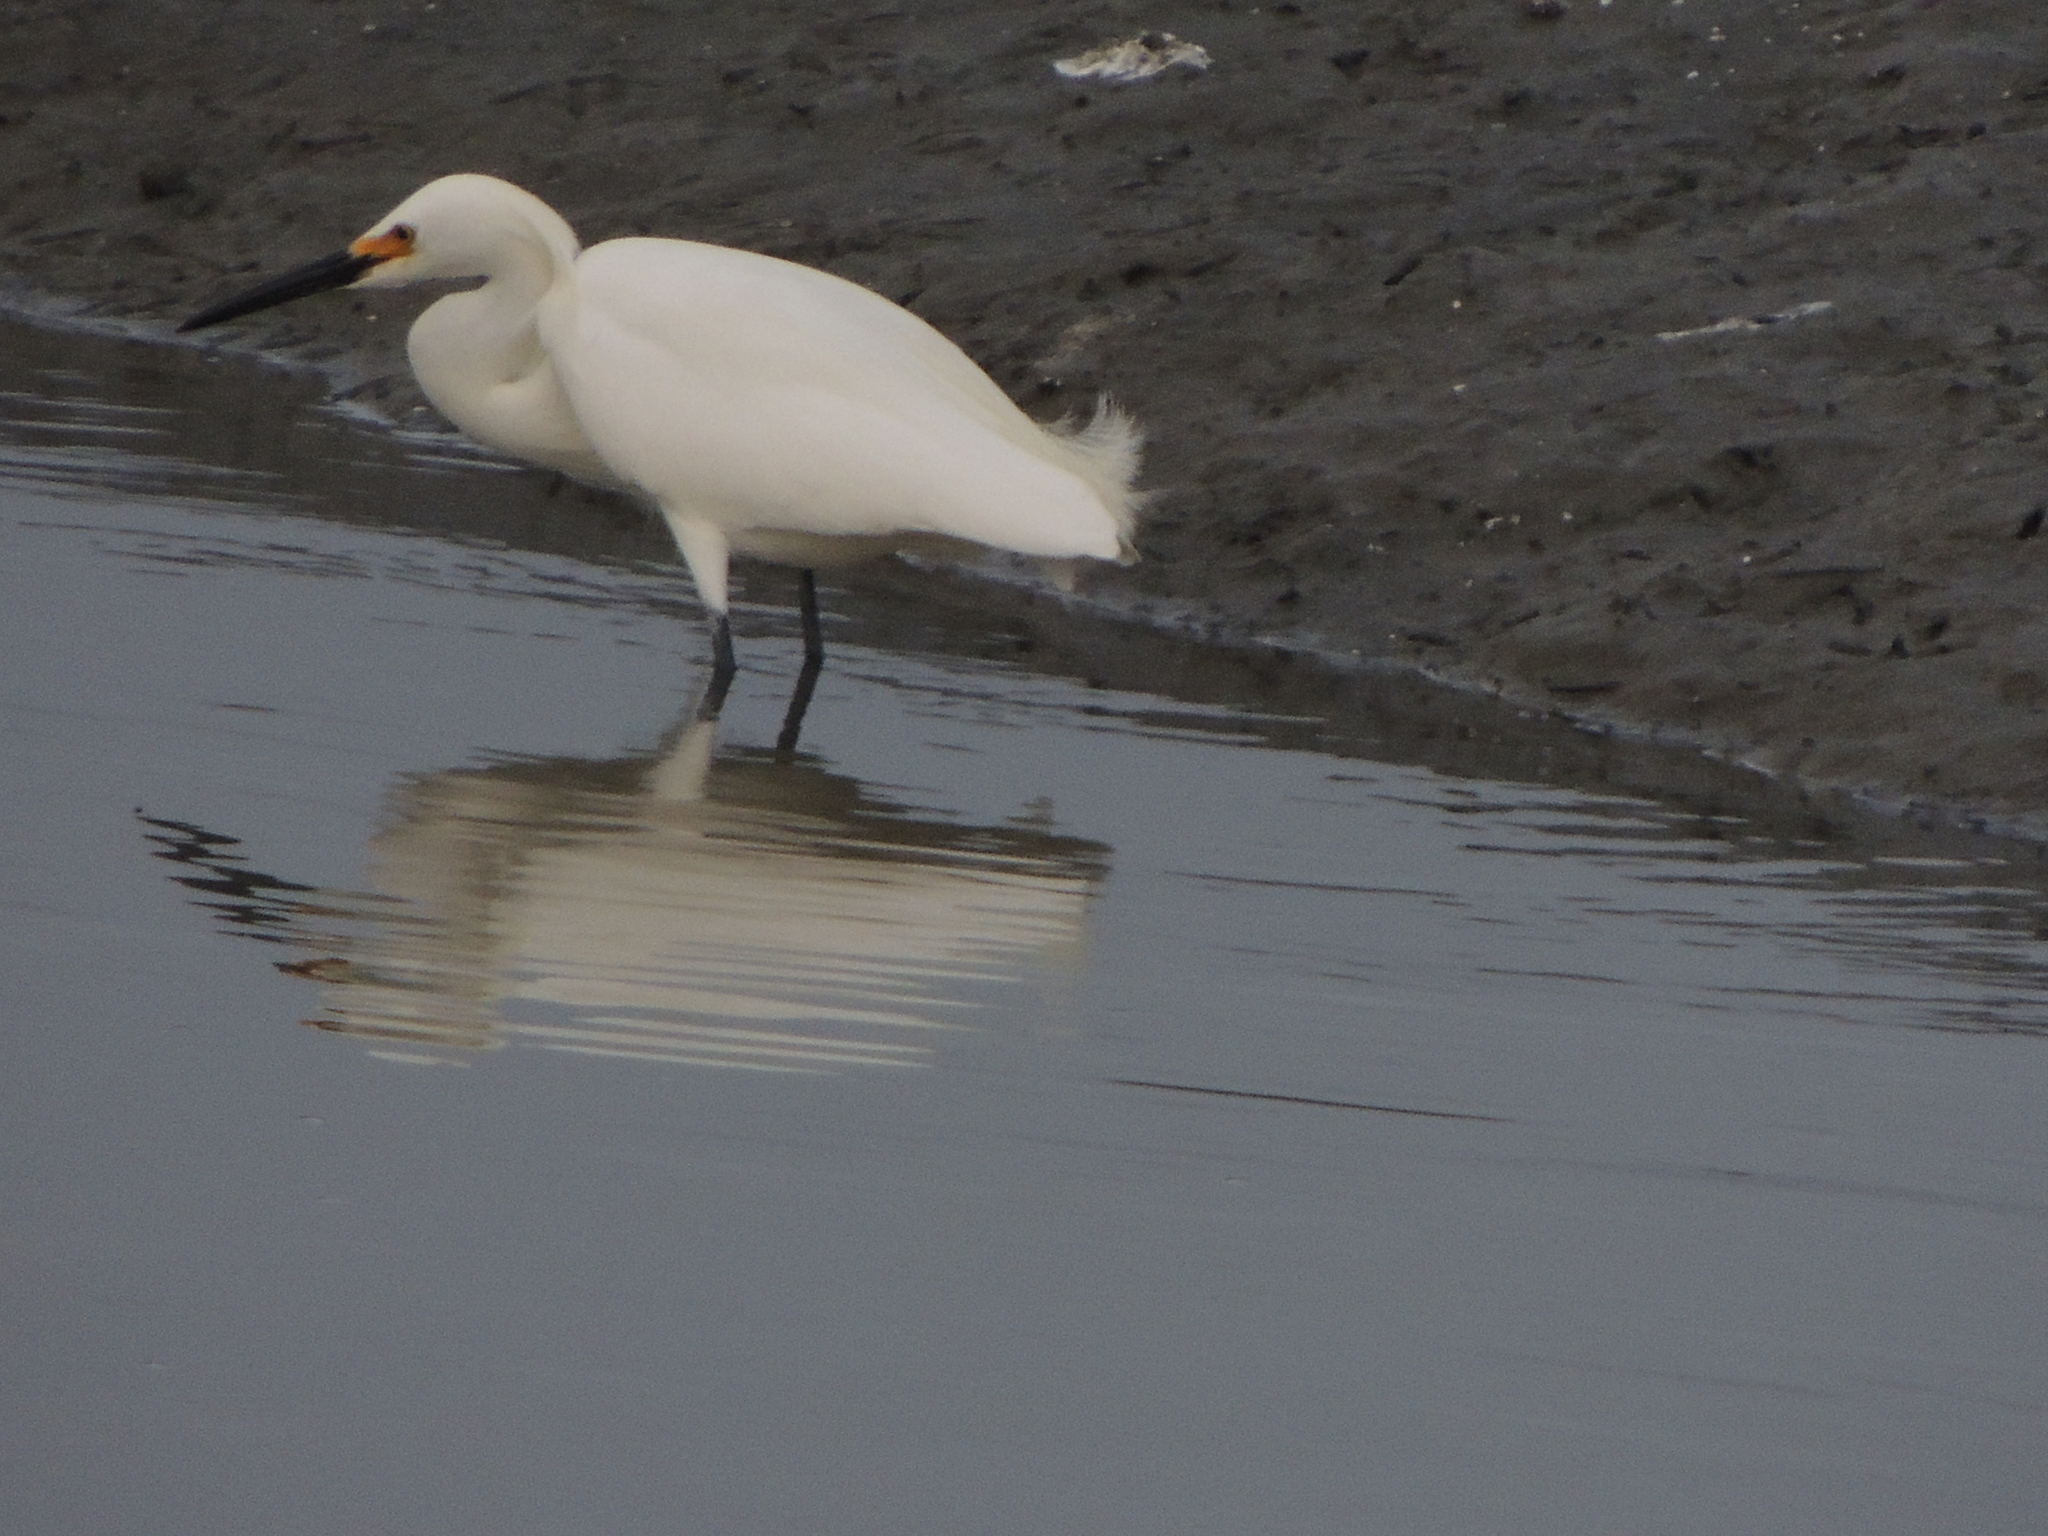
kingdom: Animalia
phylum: Chordata
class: Aves
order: Pelecaniformes
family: Ardeidae
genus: Egretta
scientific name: Egretta thula
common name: Snowy egret
